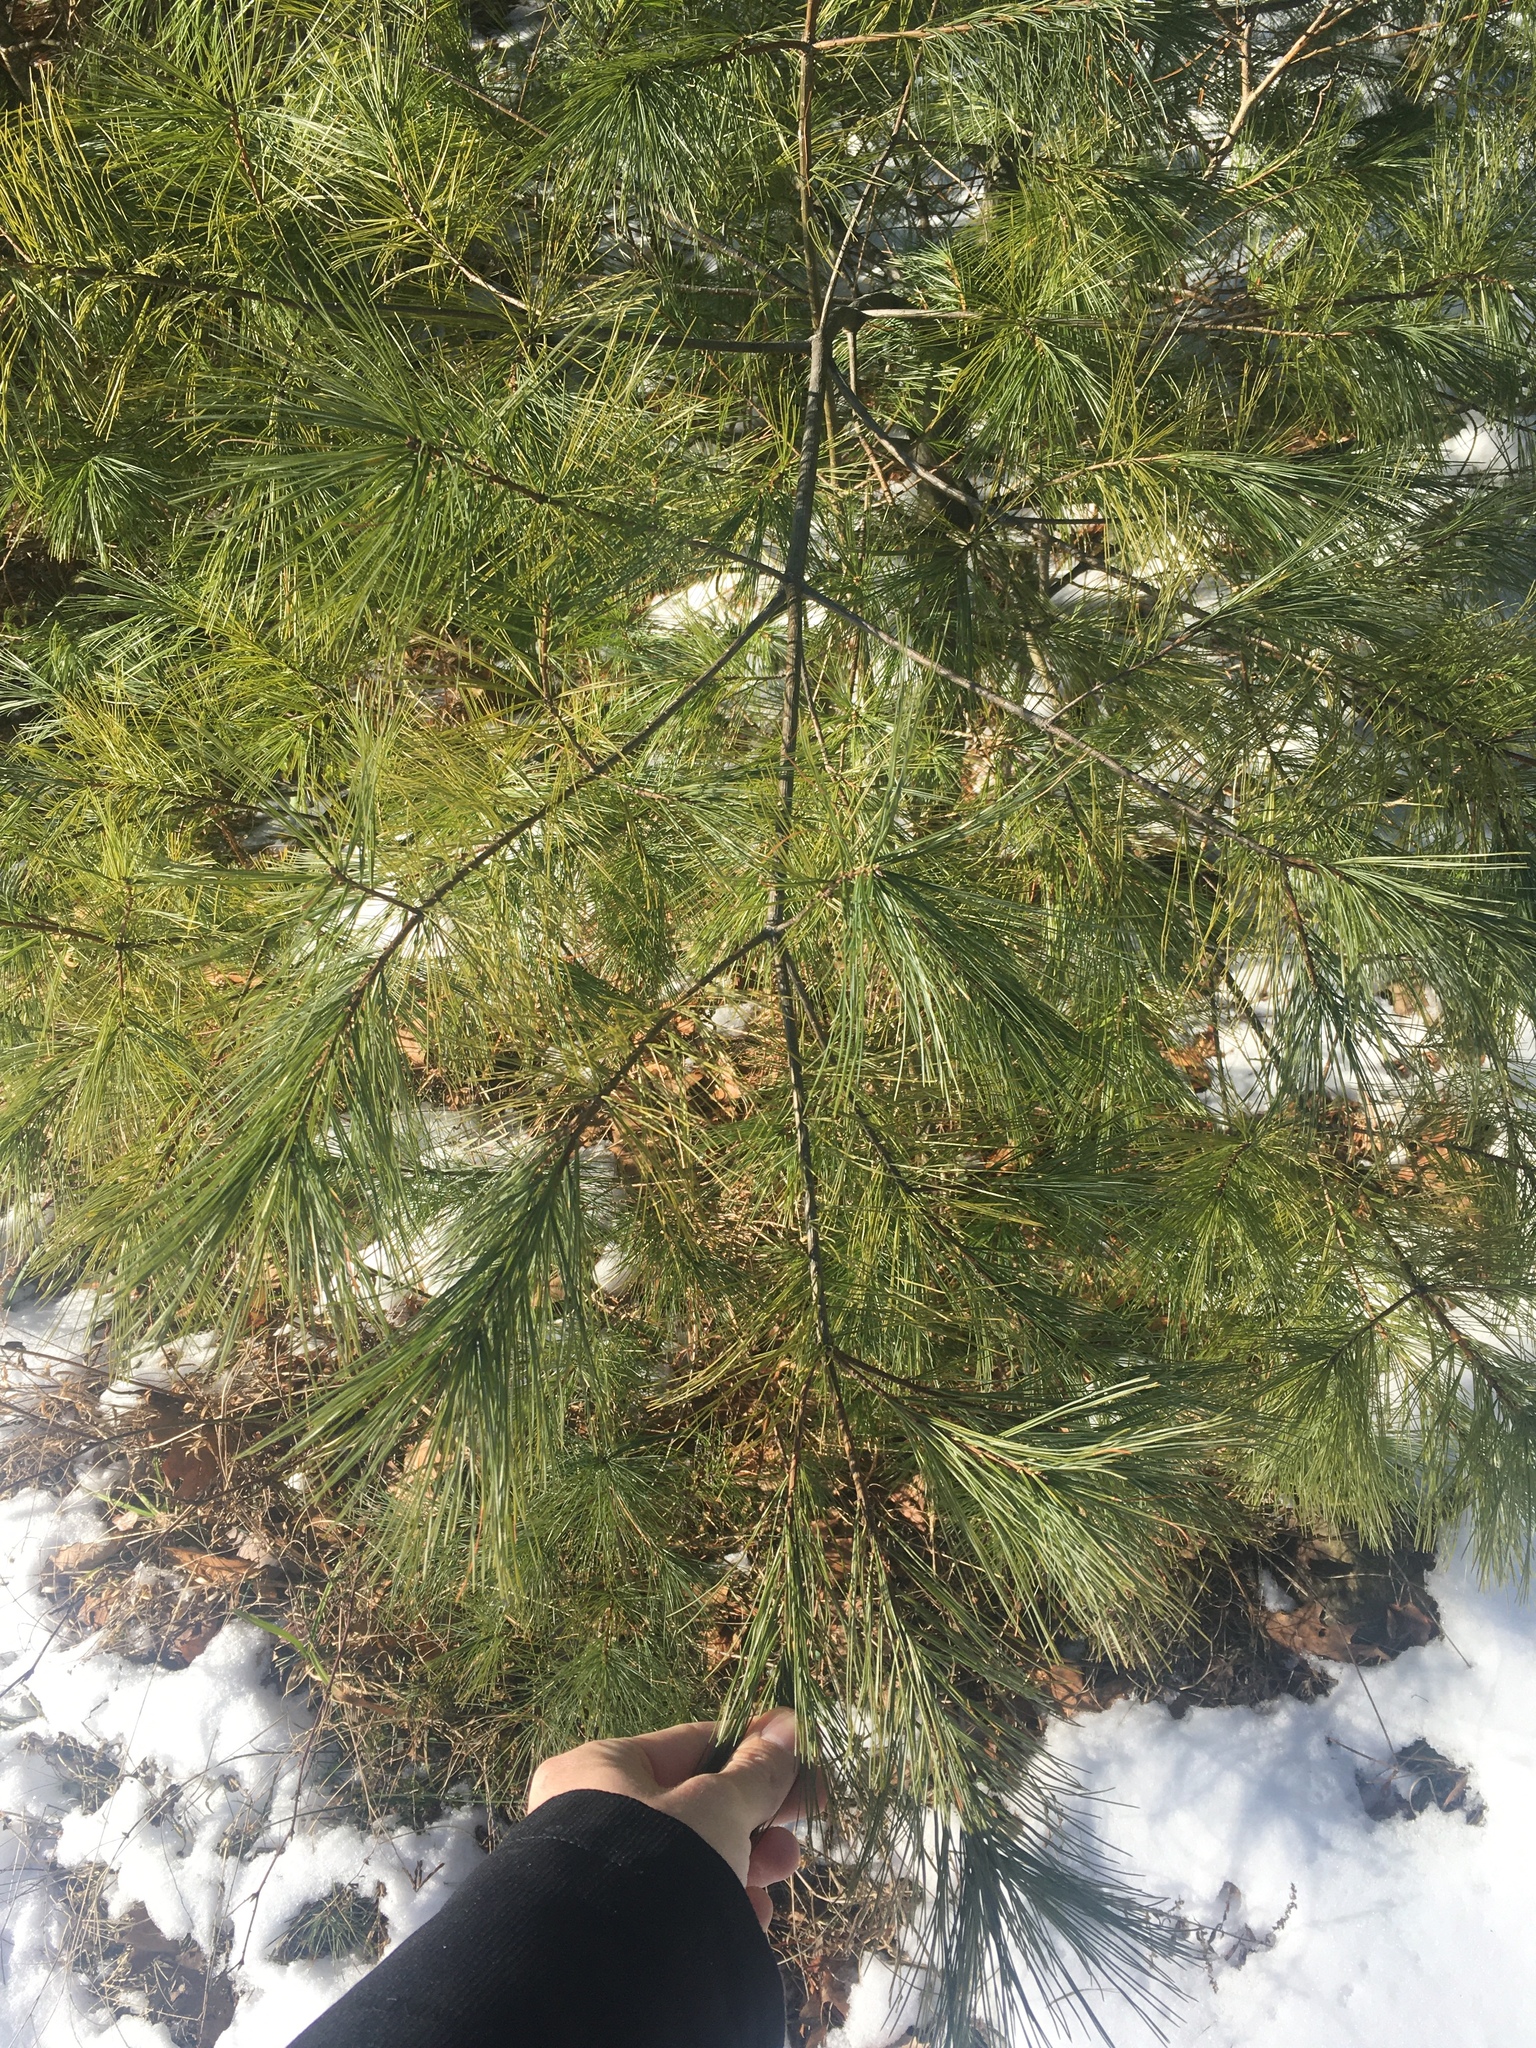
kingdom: Plantae
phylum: Tracheophyta
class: Pinopsida
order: Pinales
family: Pinaceae
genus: Pinus
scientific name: Pinus strobus
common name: Weymouth pine
